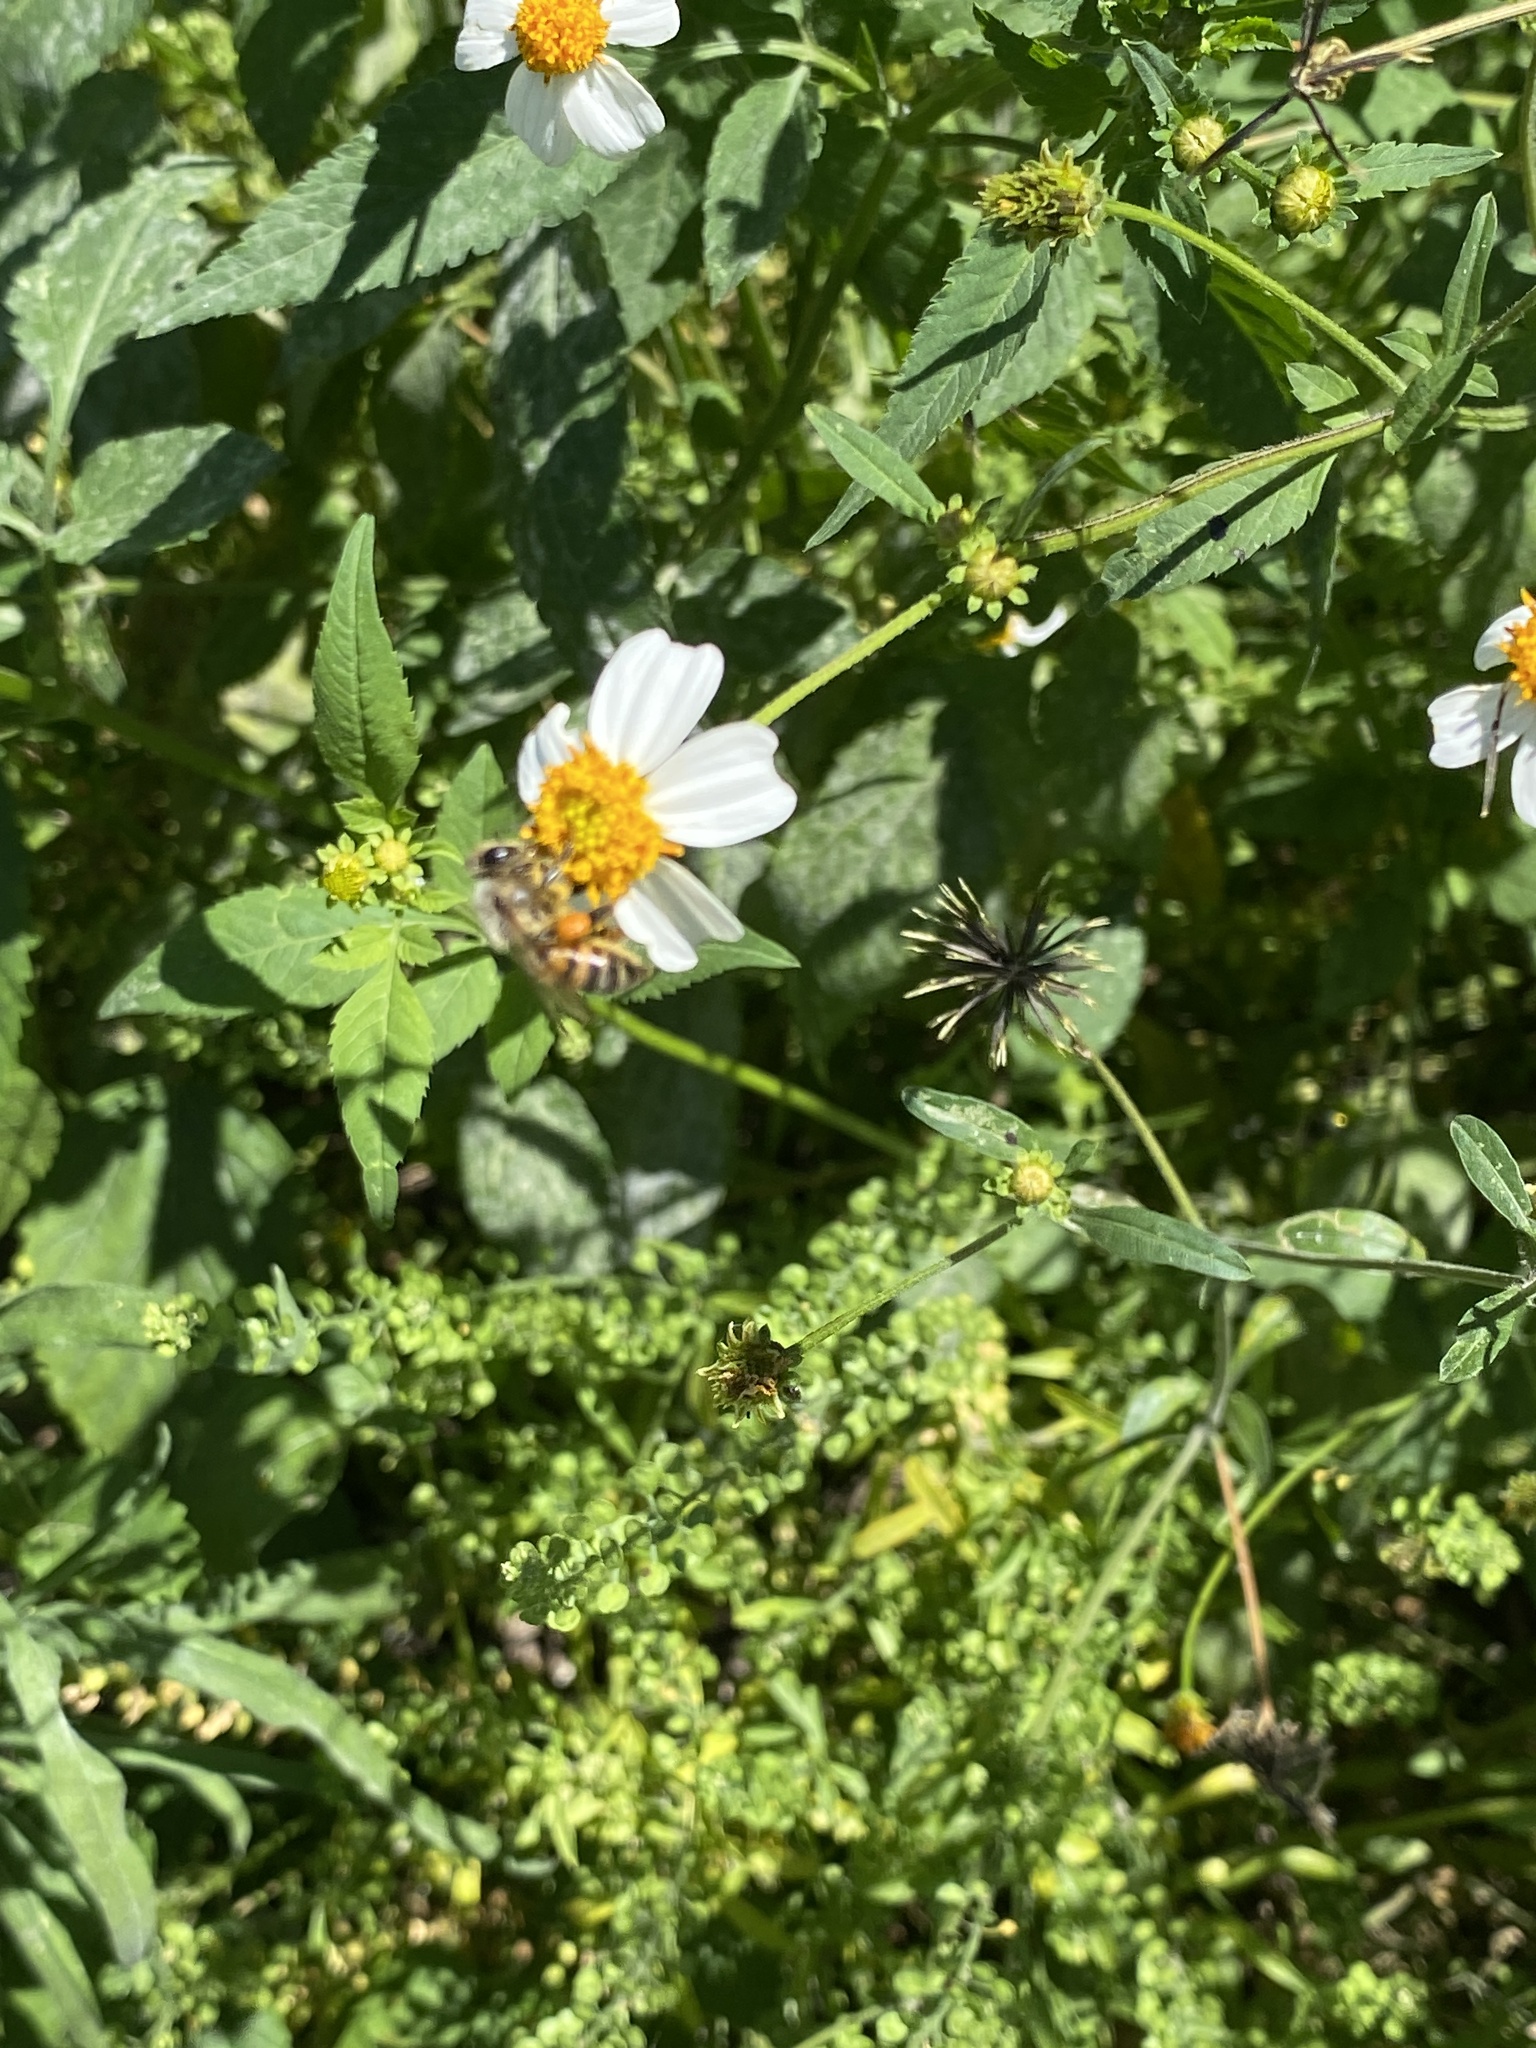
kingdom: Animalia
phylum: Arthropoda
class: Insecta
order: Hymenoptera
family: Apidae
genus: Apis
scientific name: Apis mellifera
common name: Honey bee
